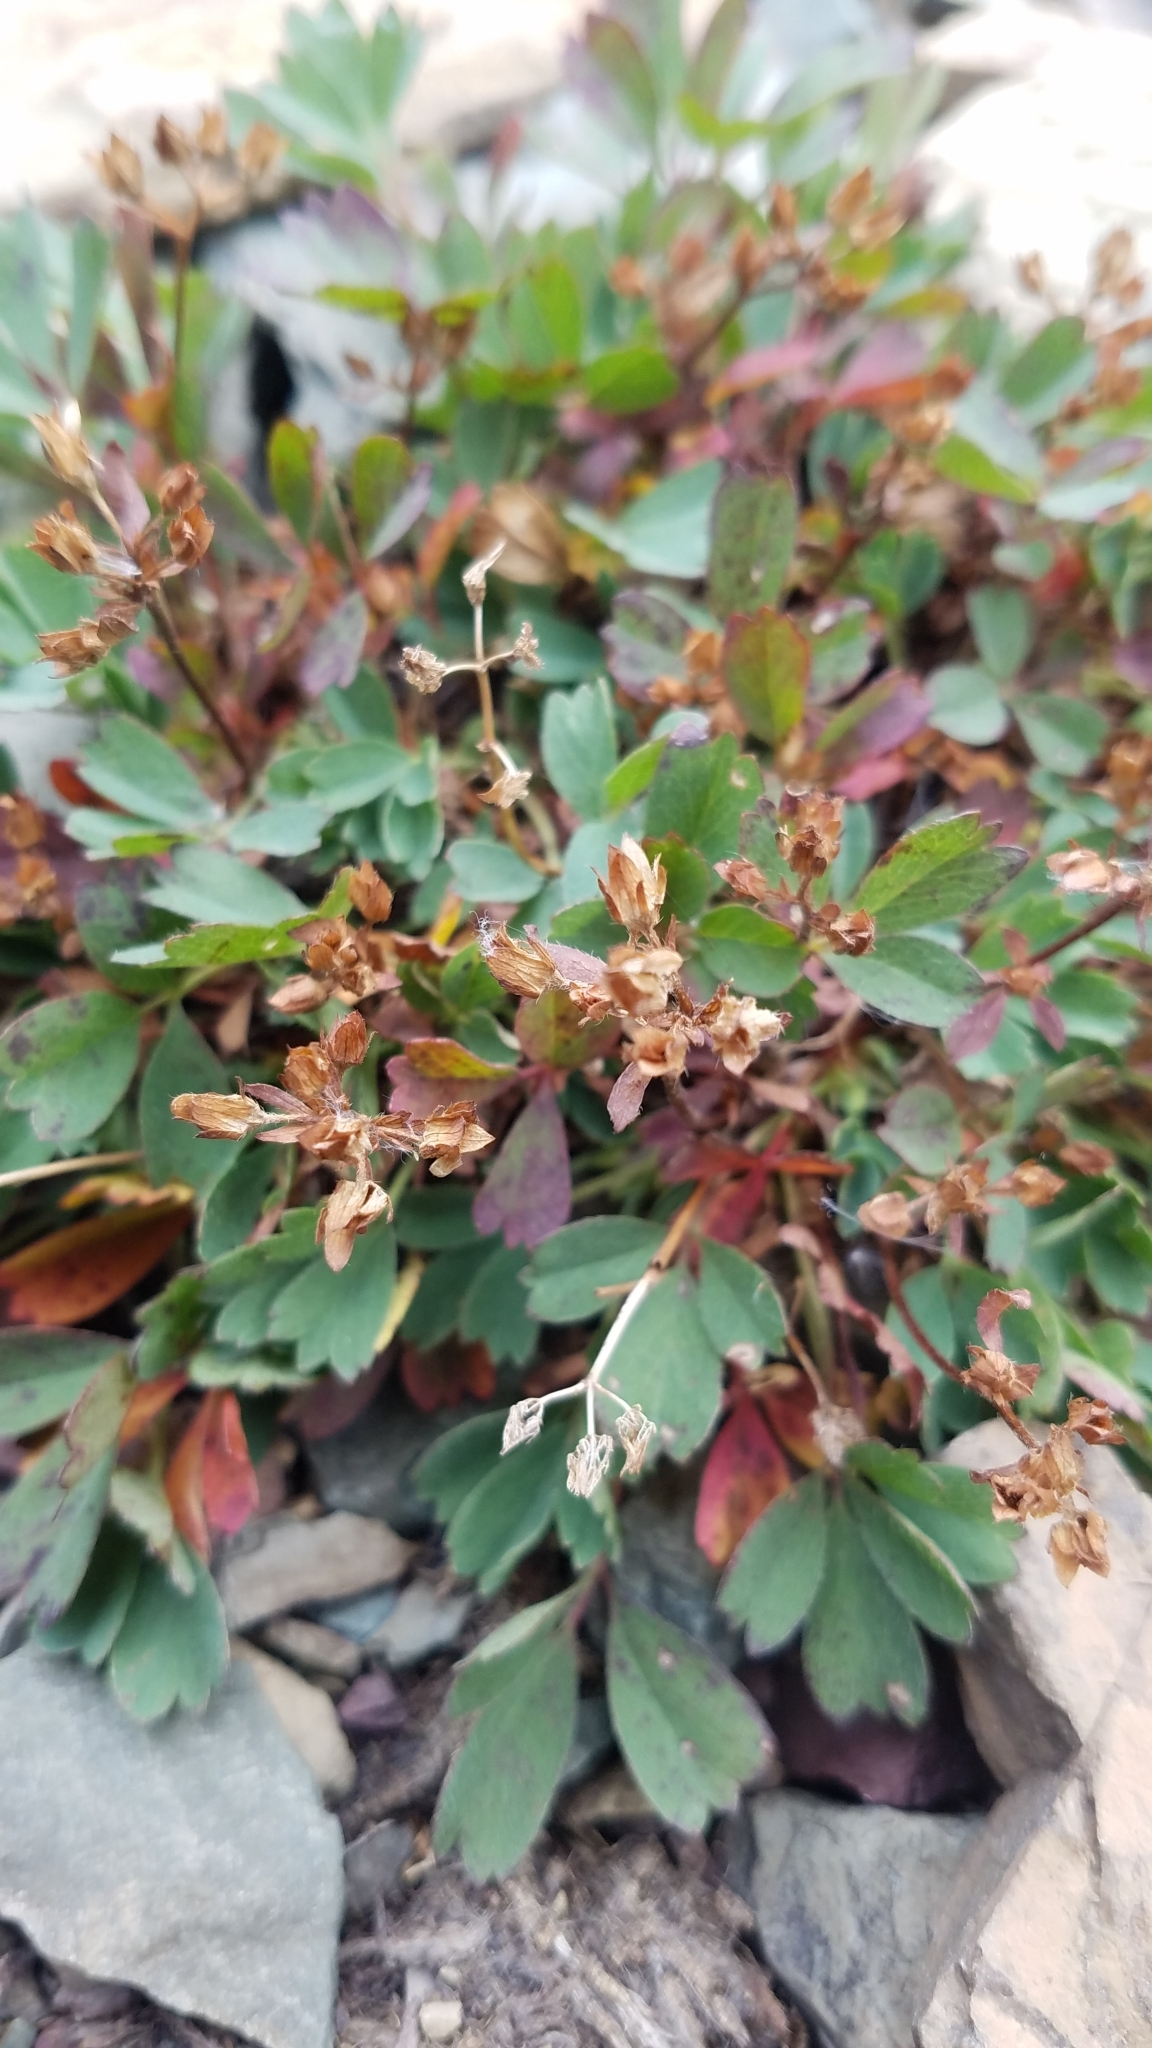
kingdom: Plantae
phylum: Tracheophyta
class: Magnoliopsida
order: Rosales
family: Rosaceae
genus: Sibbaldia
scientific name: Sibbaldia procumbens
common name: Creeping sibbaldia
